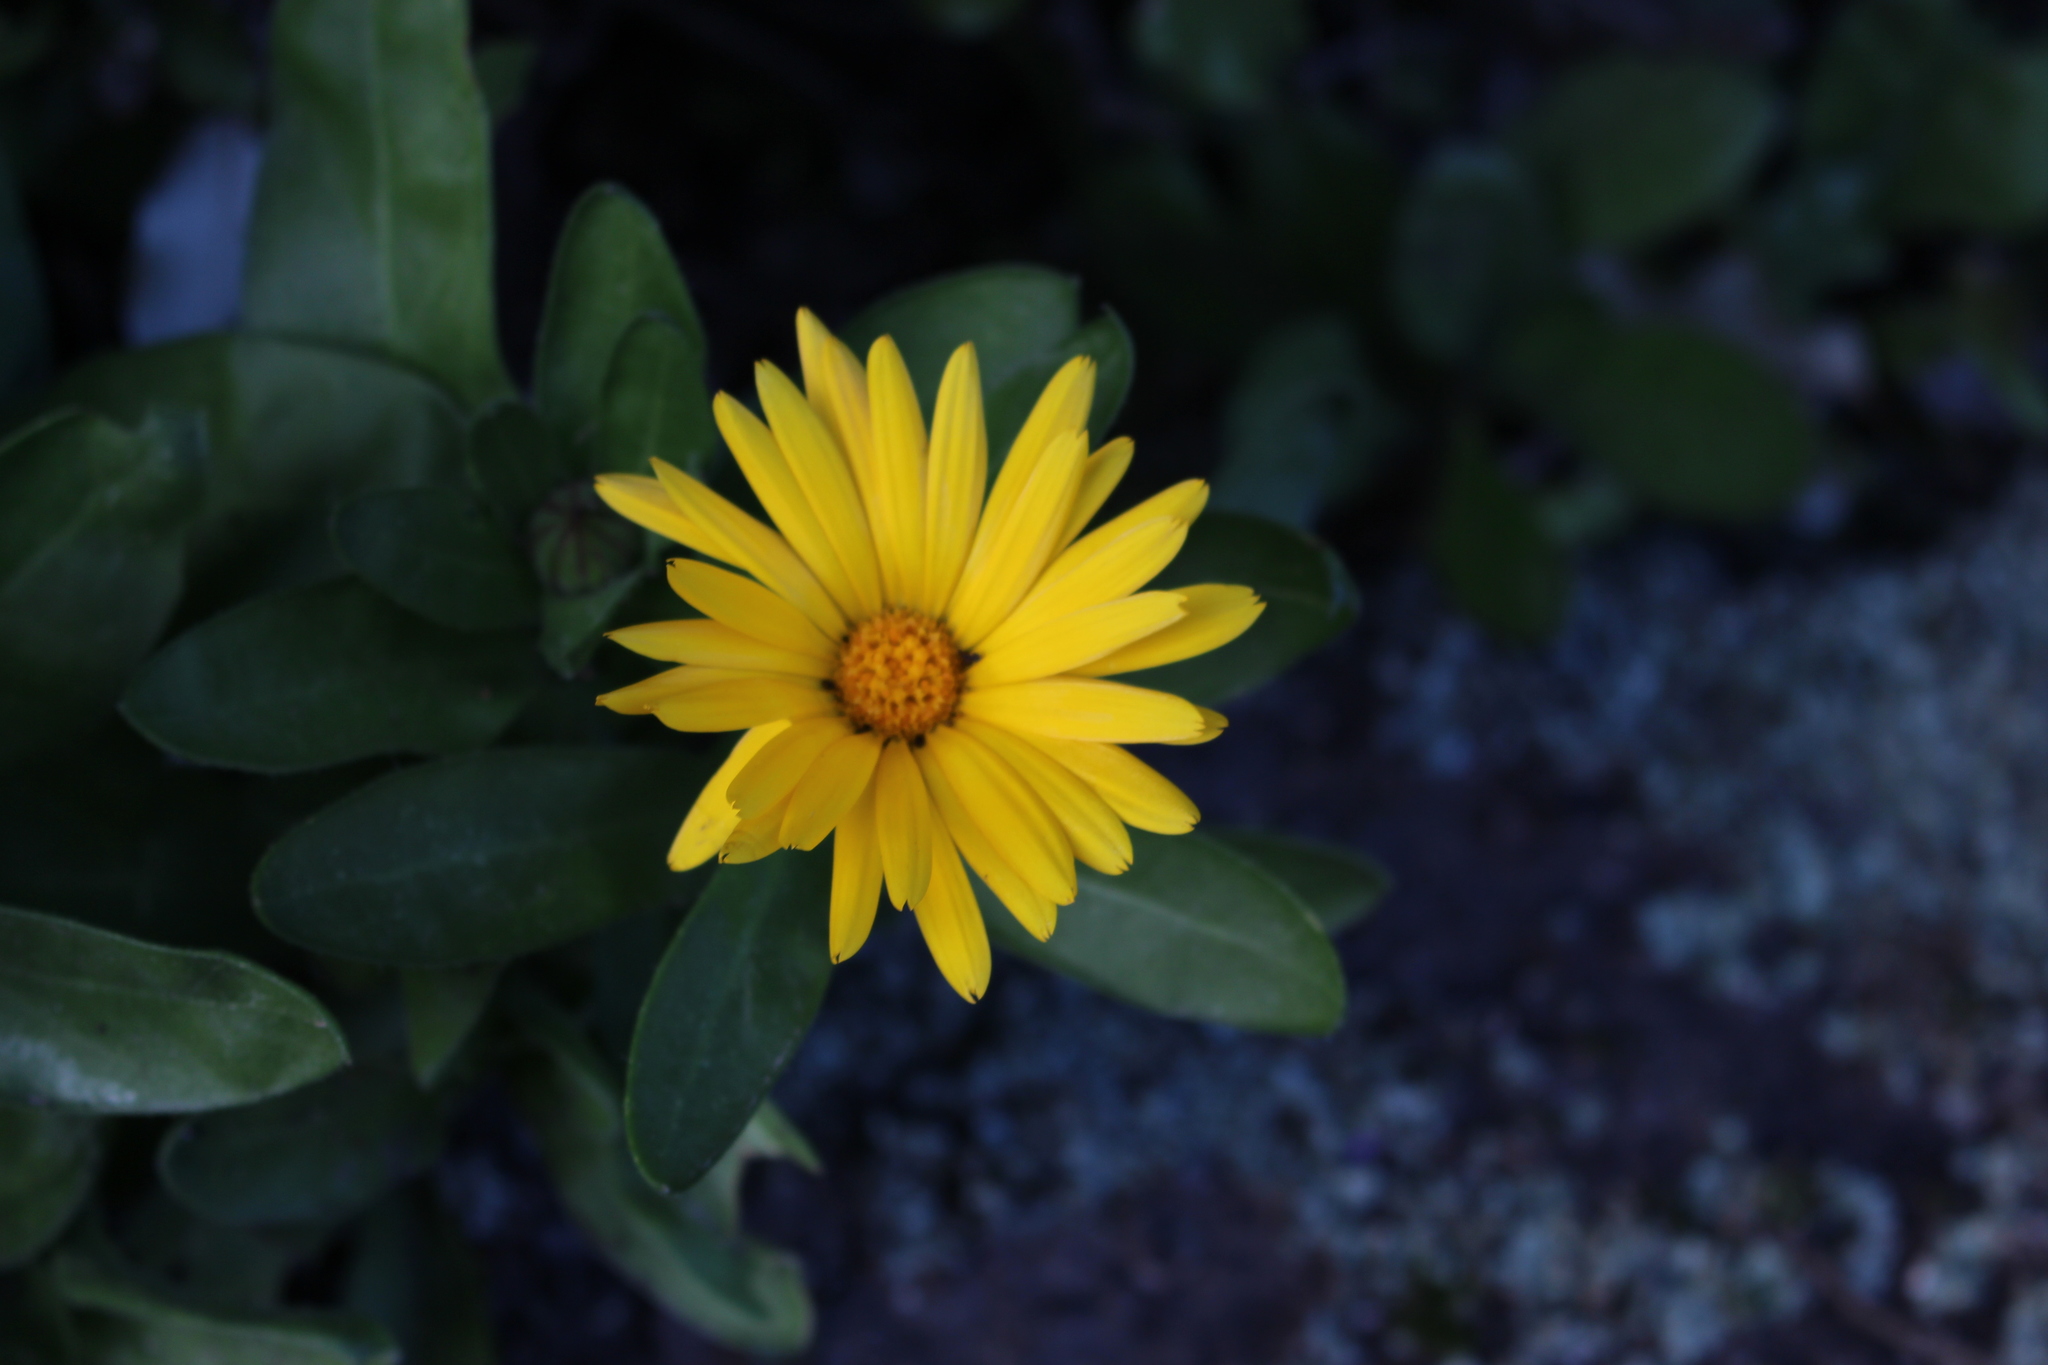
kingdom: Plantae
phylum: Tracheophyta
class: Magnoliopsida
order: Asterales
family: Asteraceae
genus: Calendula
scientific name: Calendula officinalis
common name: Pot marigold
